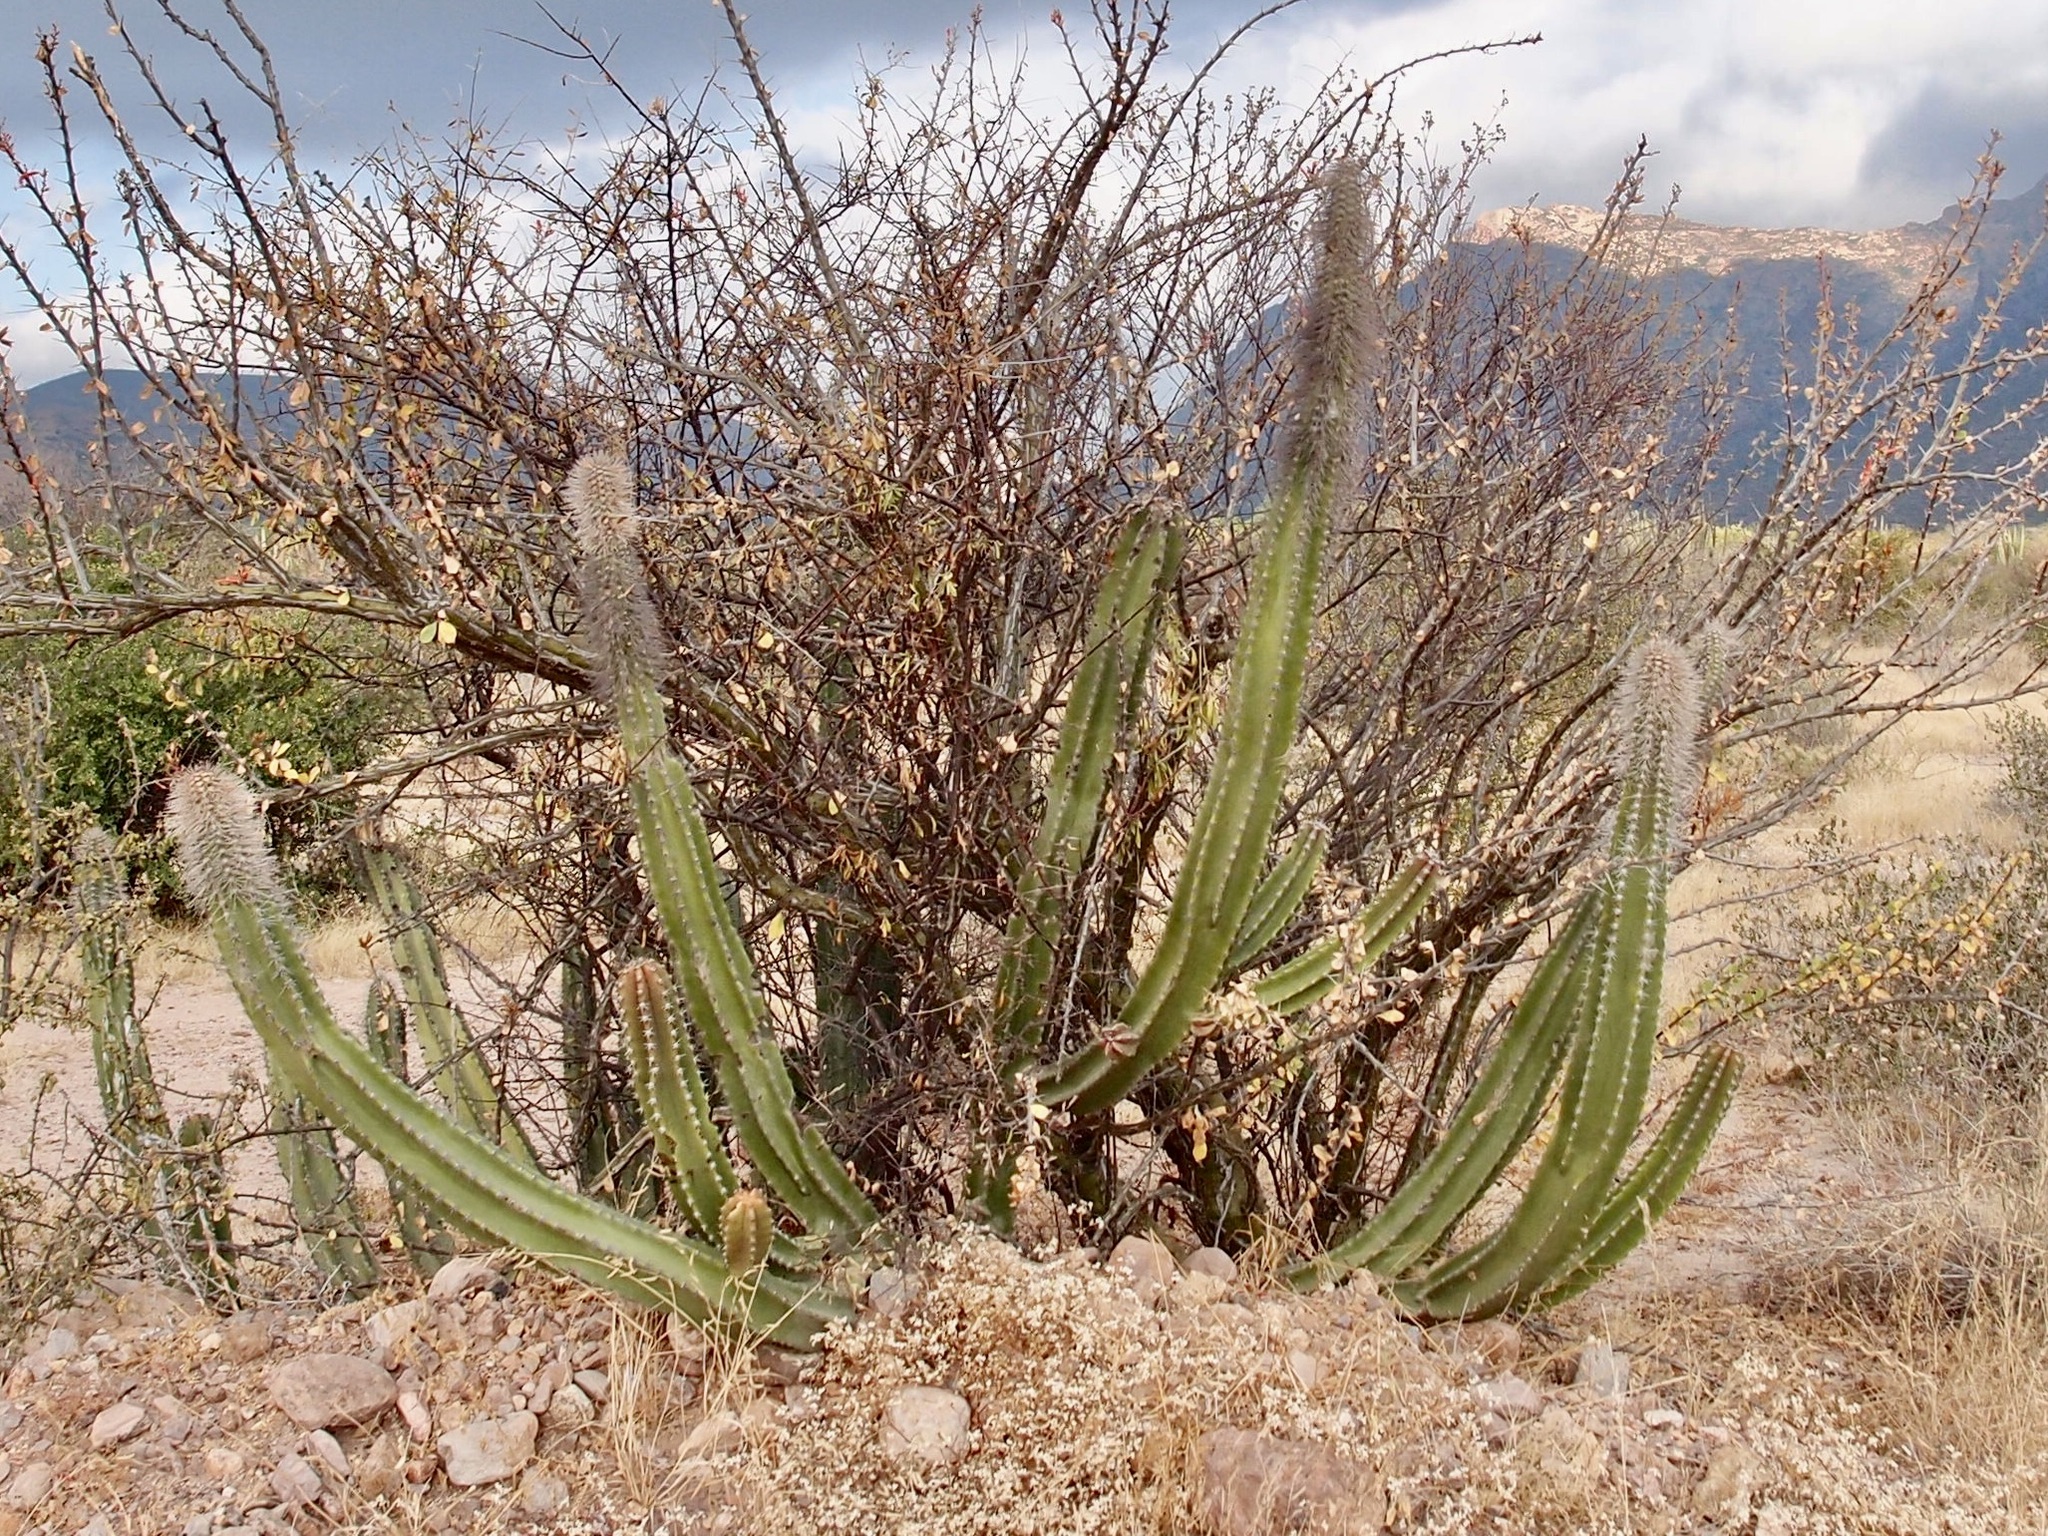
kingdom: Plantae
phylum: Tracheophyta
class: Magnoliopsida
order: Caryophyllales
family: Cactaceae
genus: Pachycereus
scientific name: Pachycereus schottii
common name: Senita cactus
